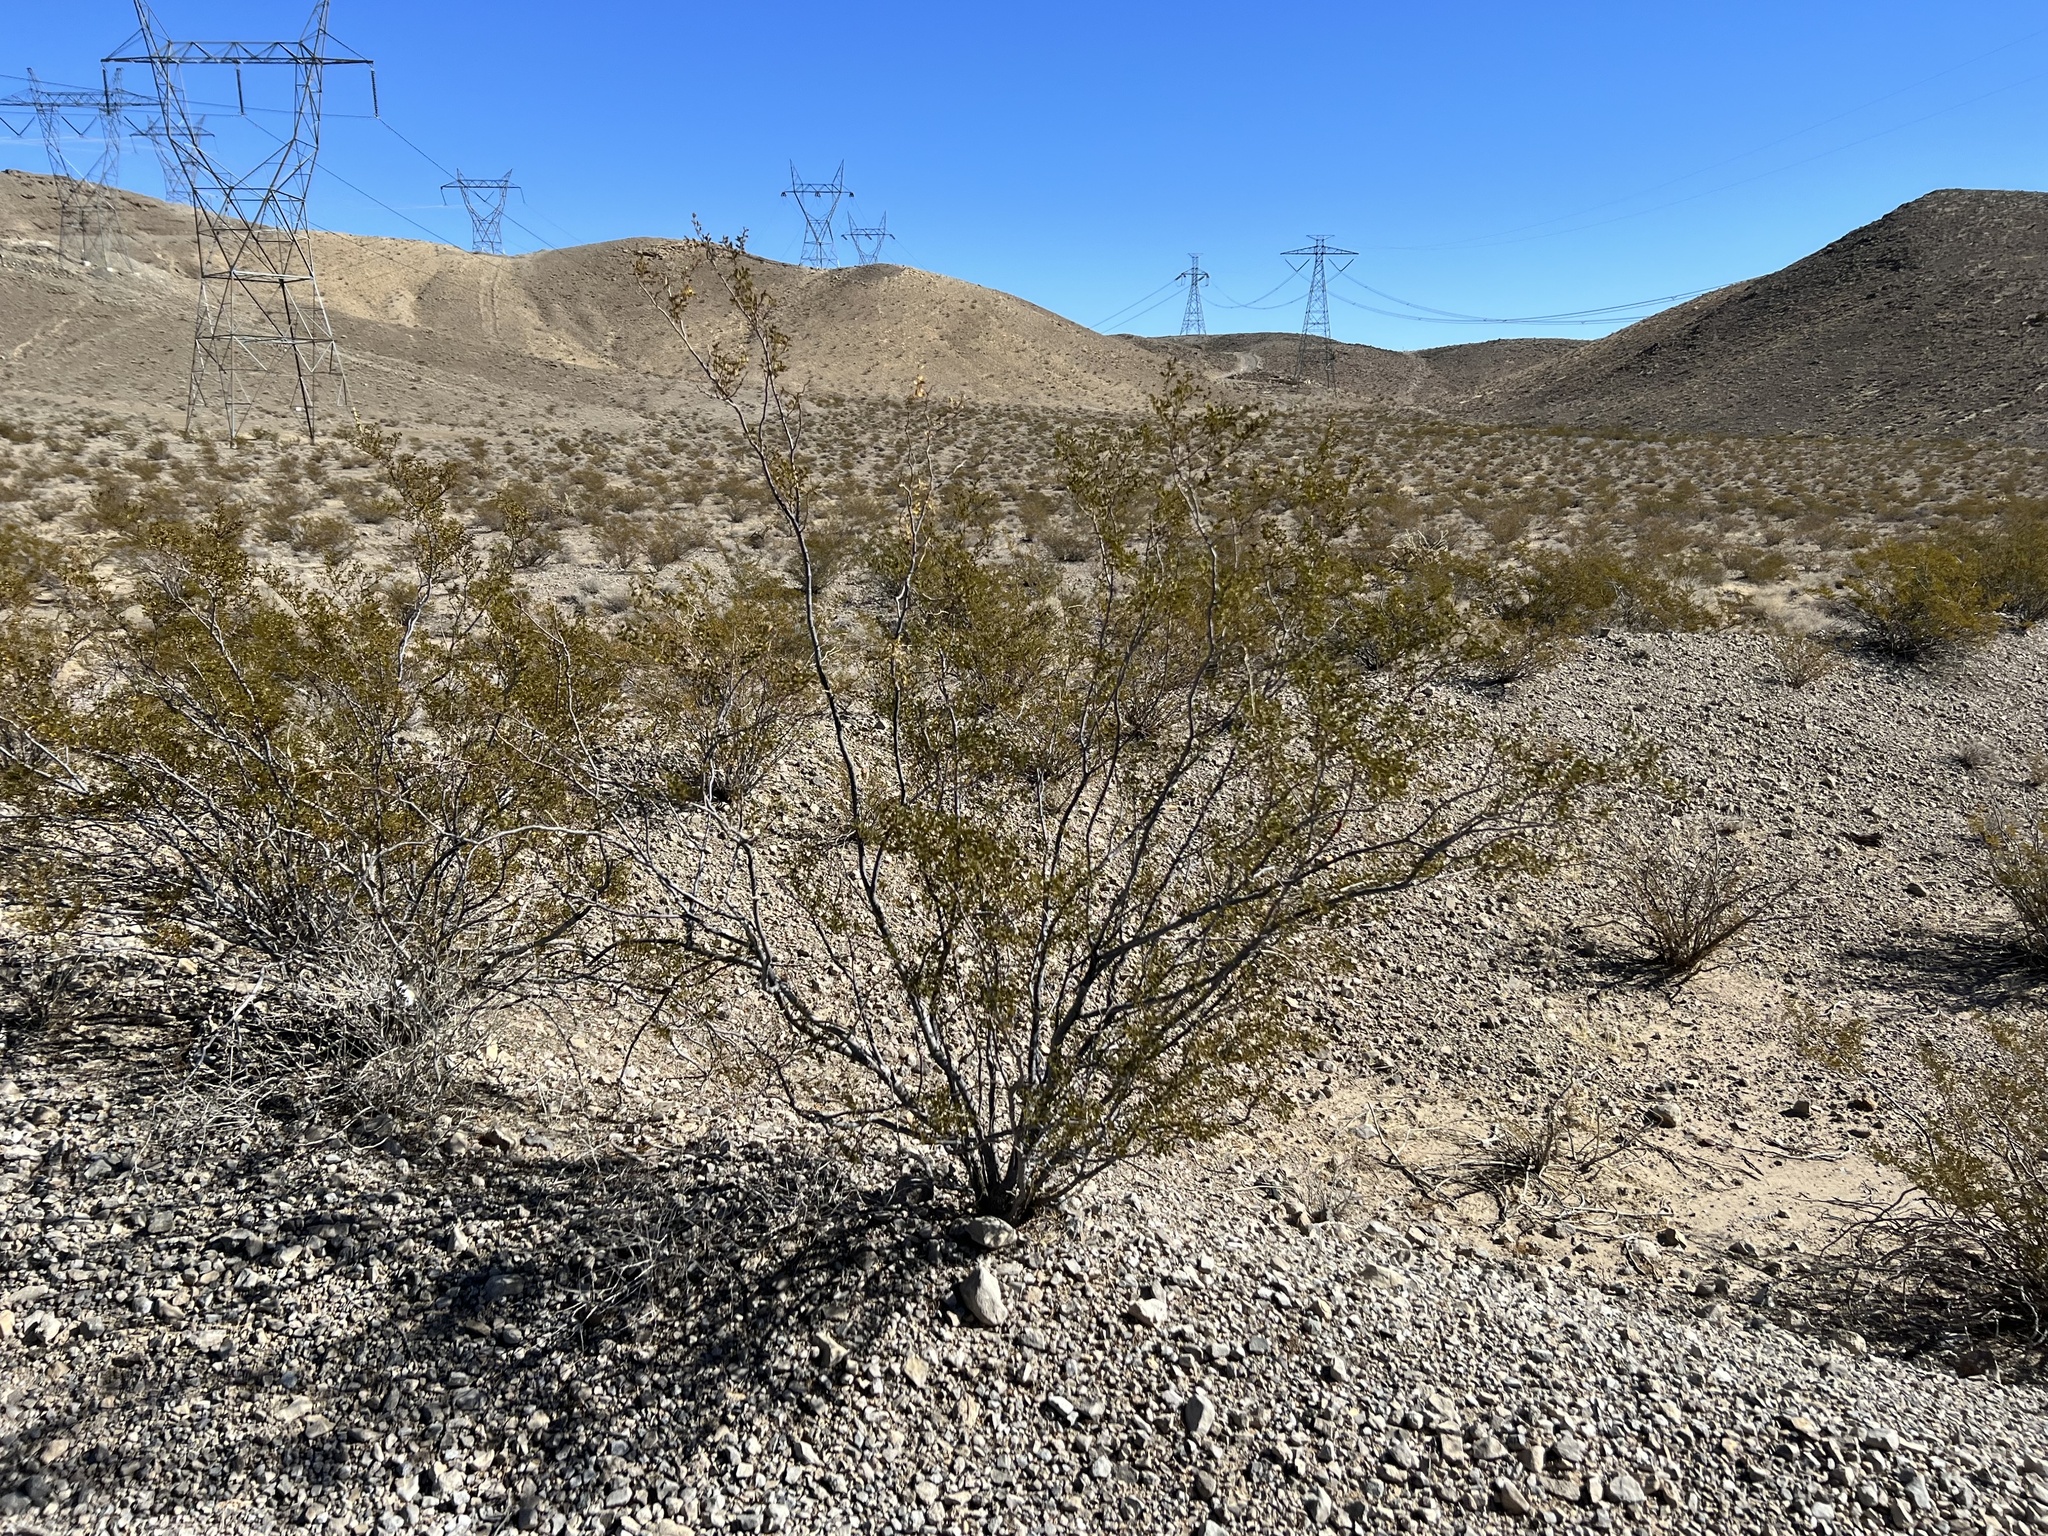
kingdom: Plantae
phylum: Tracheophyta
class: Magnoliopsida
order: Zygophyllales
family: Zygophyllaceae
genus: Larrea
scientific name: Larrea tridentata
